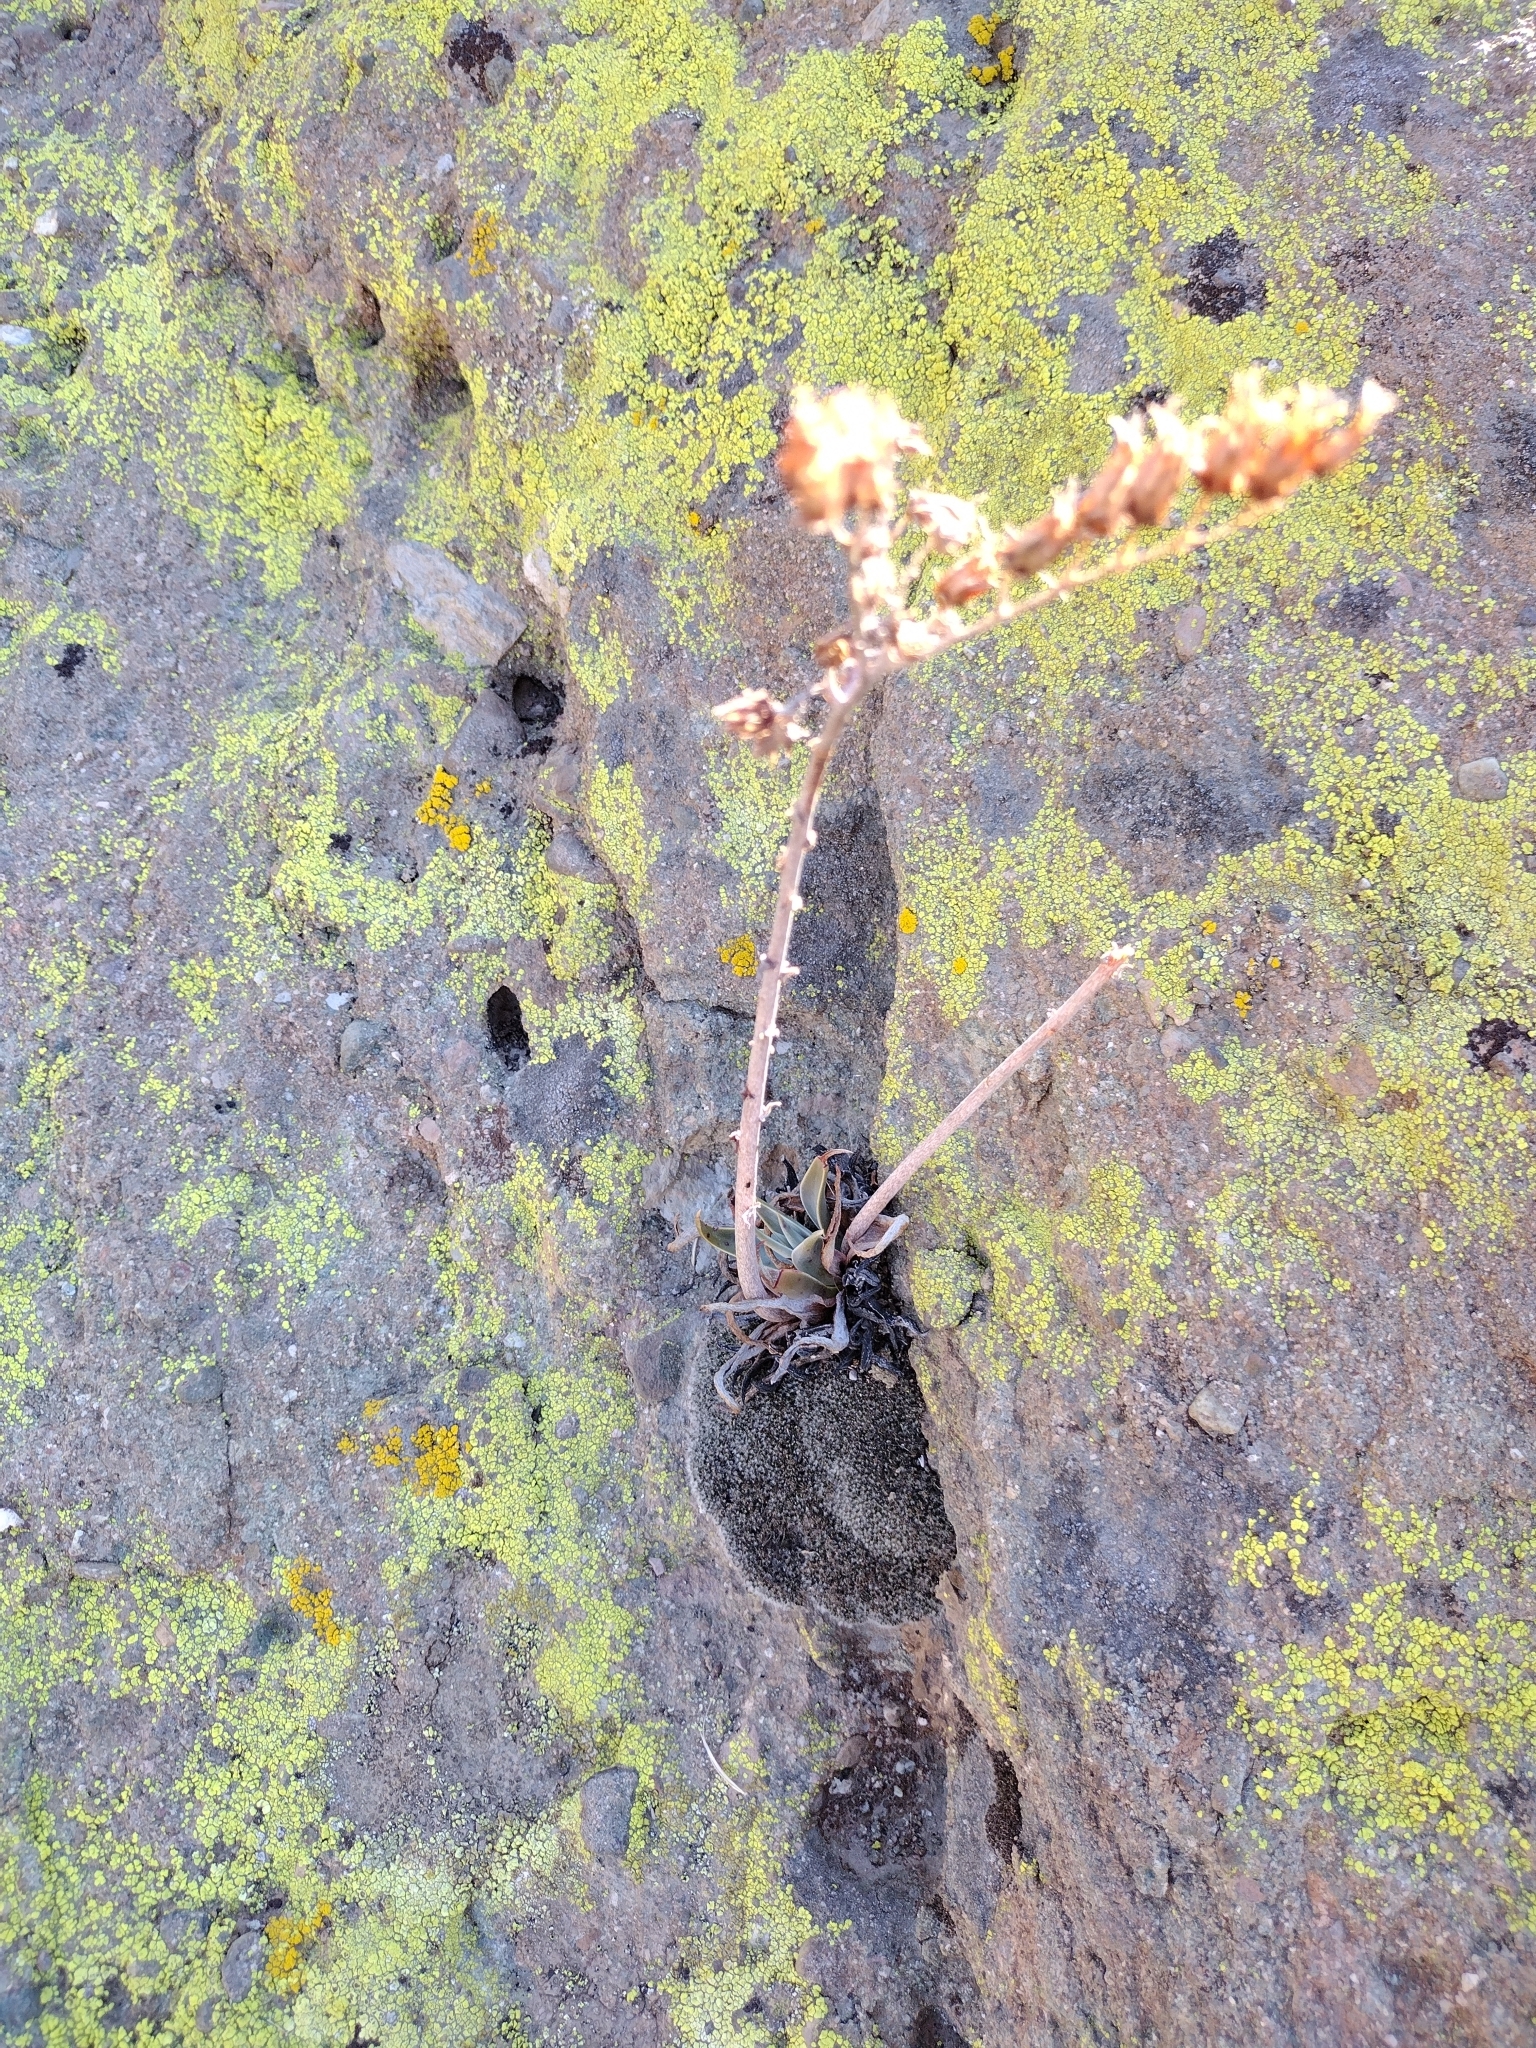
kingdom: Plantae
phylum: Tracheophyta
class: Magnoliopsida
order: Saxifragales
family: Crassulaceae
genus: Dudleya
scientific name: Dudleya lanceolata
